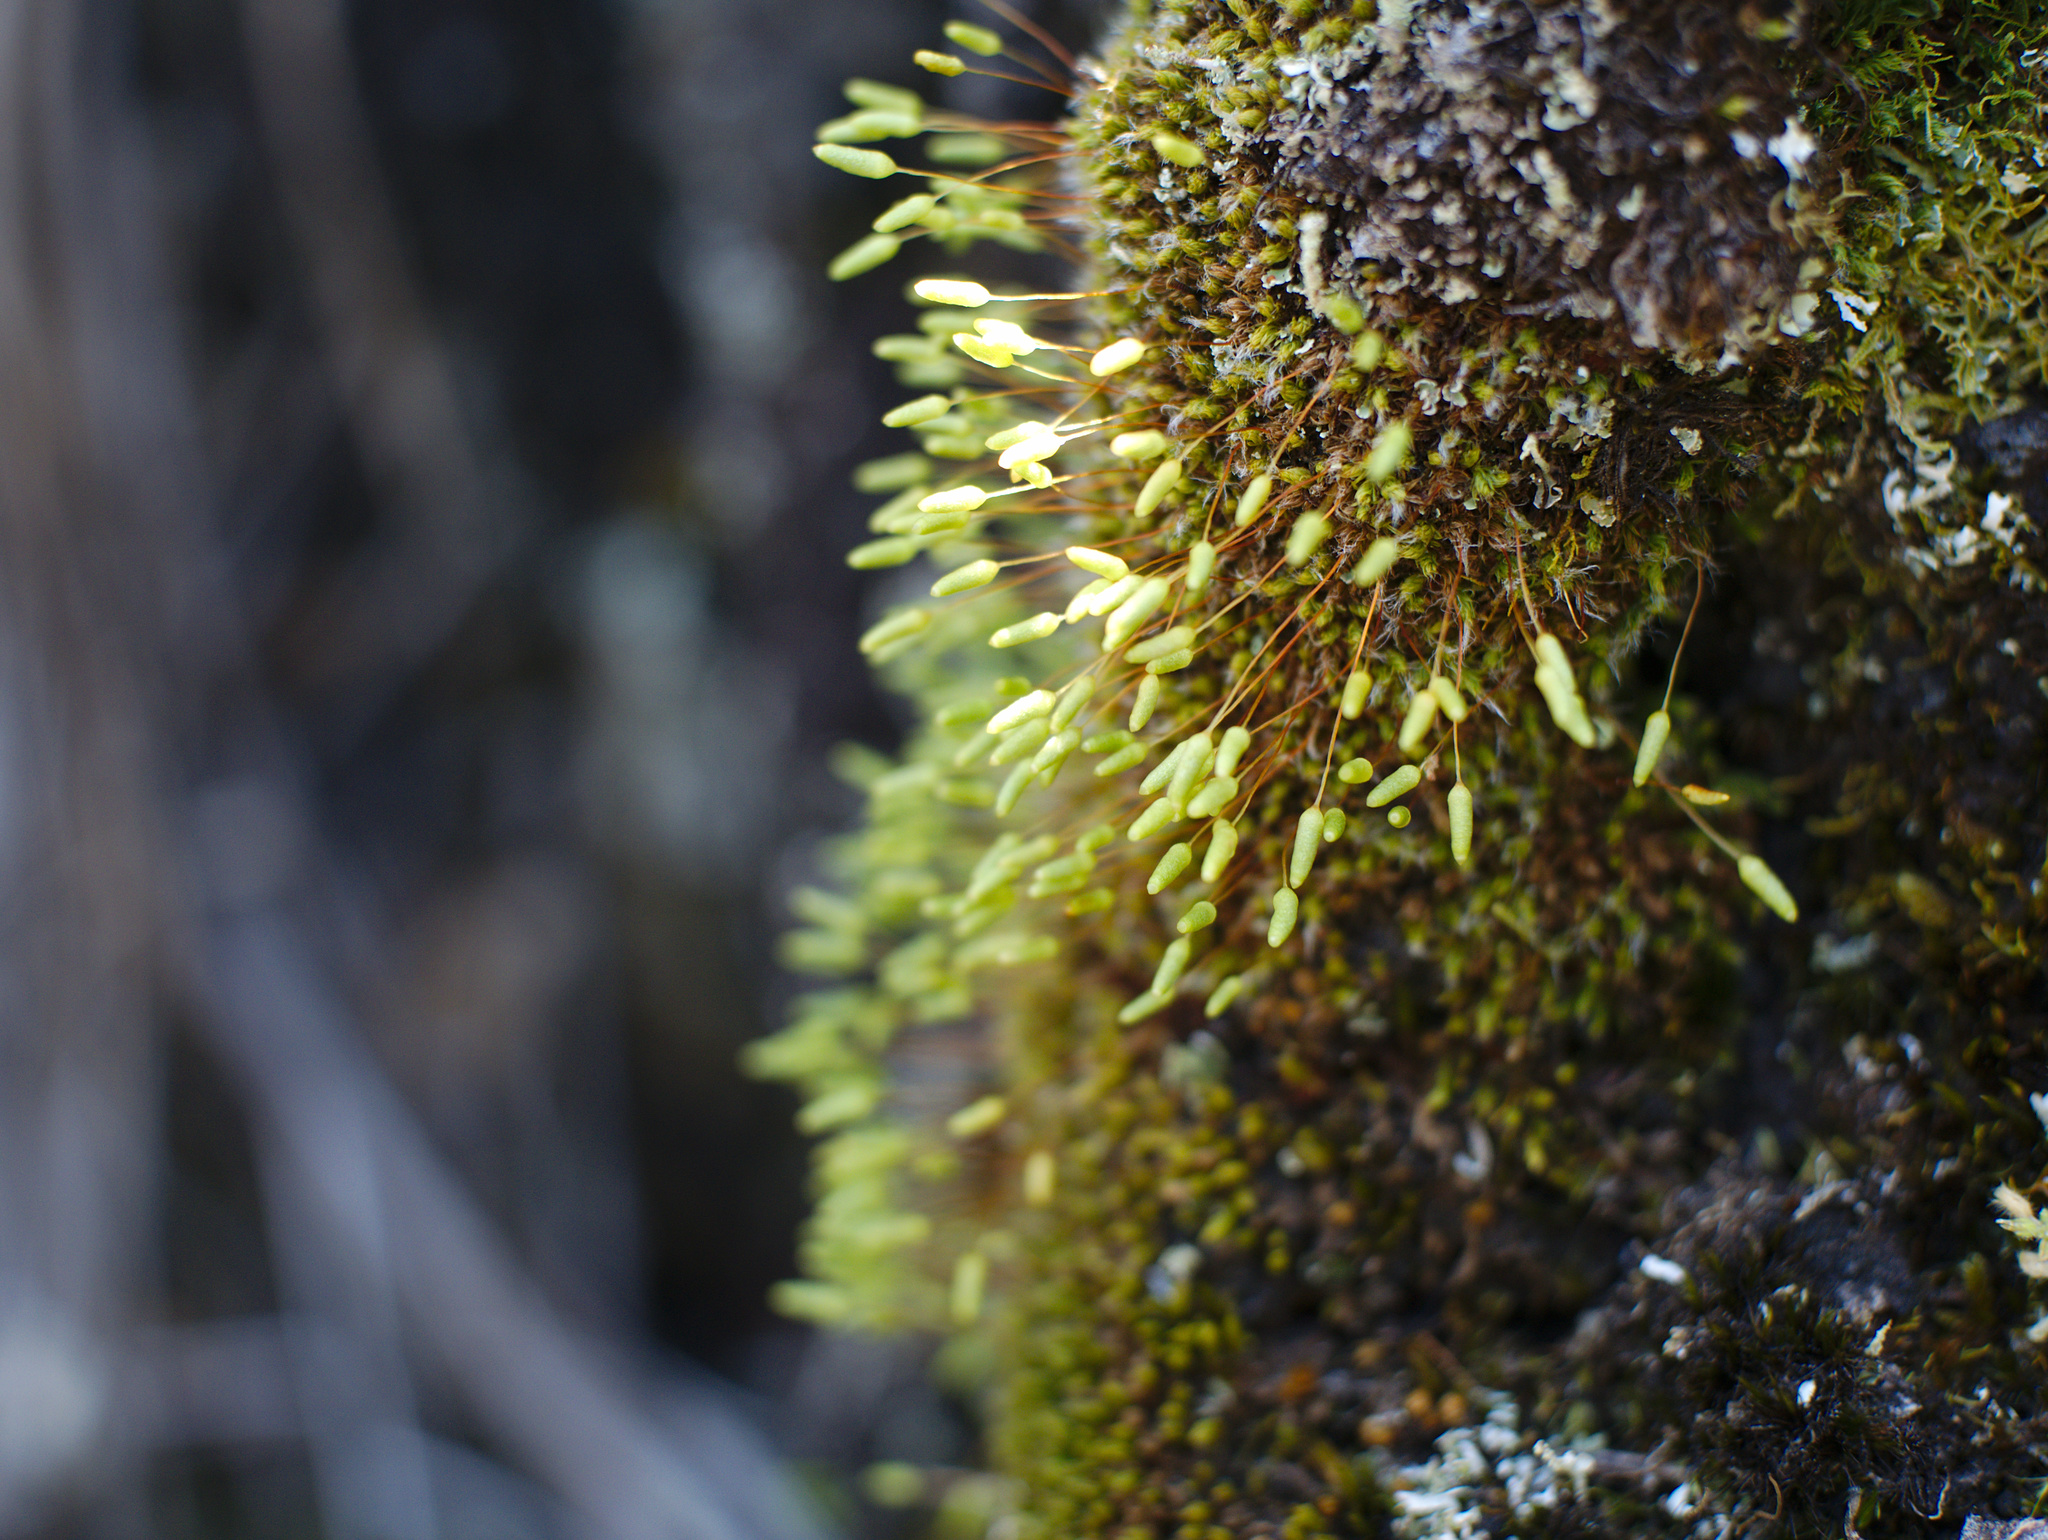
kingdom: Plantae
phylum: Bryophyta
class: Bryopsida
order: Bryales
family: Leptostomataceae
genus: Leptostomum
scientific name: Leptostomum macrocarpon
